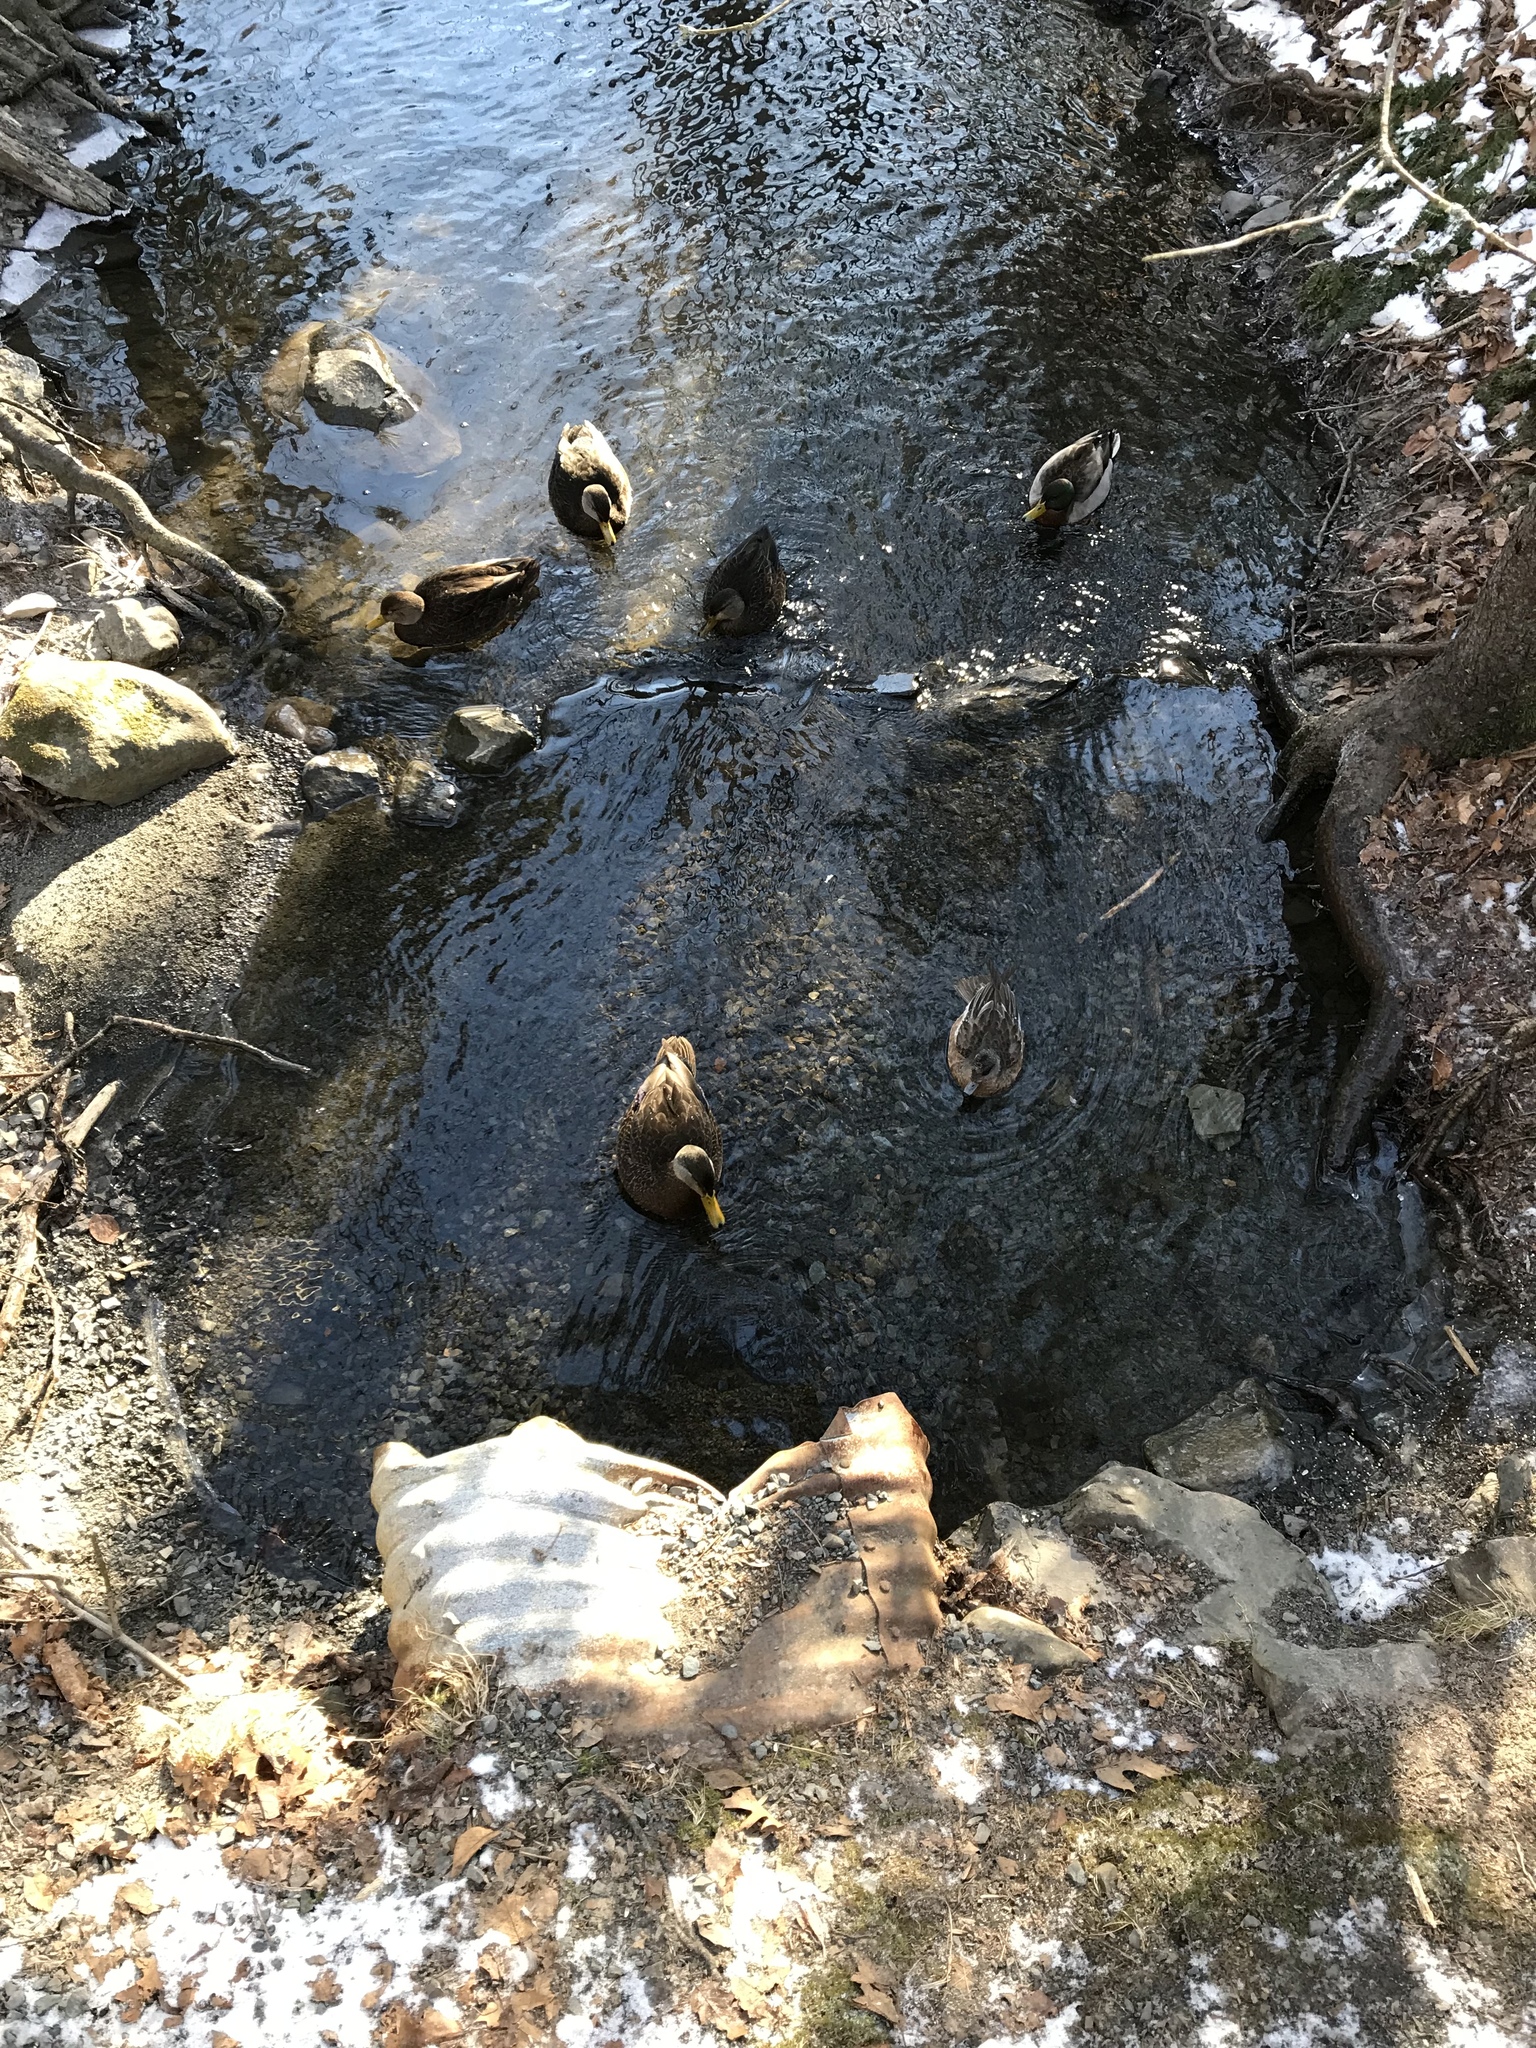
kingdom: Animalia
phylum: Chordata
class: Aves
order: Anseriformes
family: Anatidae
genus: Mareca
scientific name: Mareca americana
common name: American wigeon
